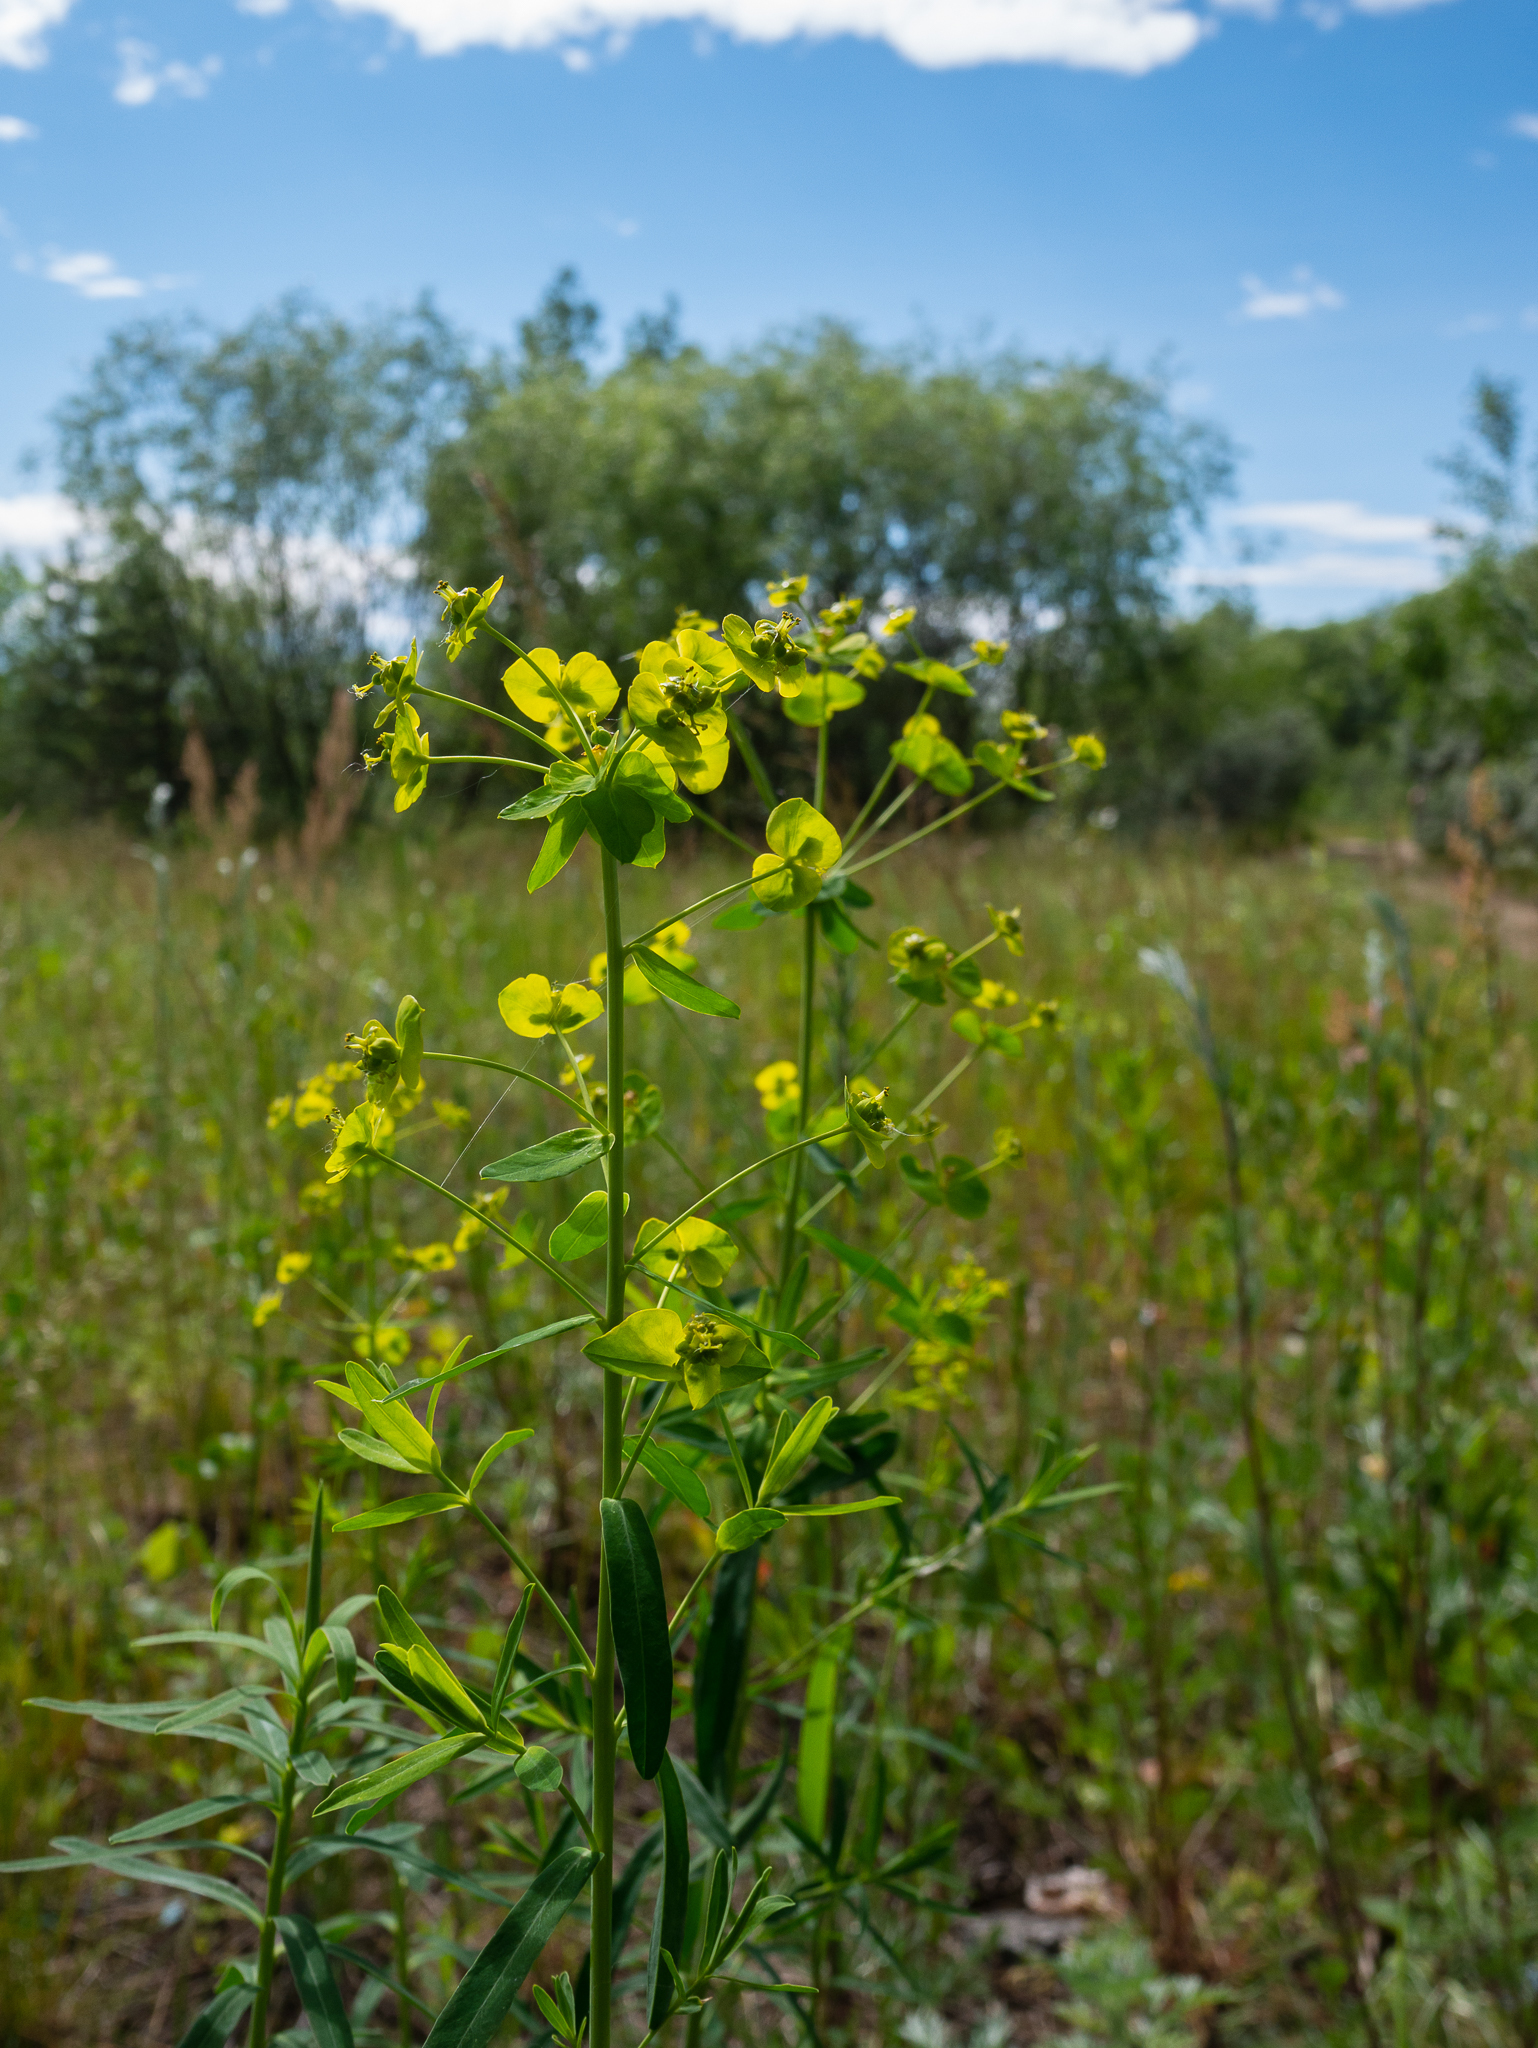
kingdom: Plantae
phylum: Tracheophyta
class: Magnoliopsida
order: Malpighiales
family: Euphorbiaceae
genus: Euphorbia
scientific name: Euphorbia virgata
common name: Leafy spurge
